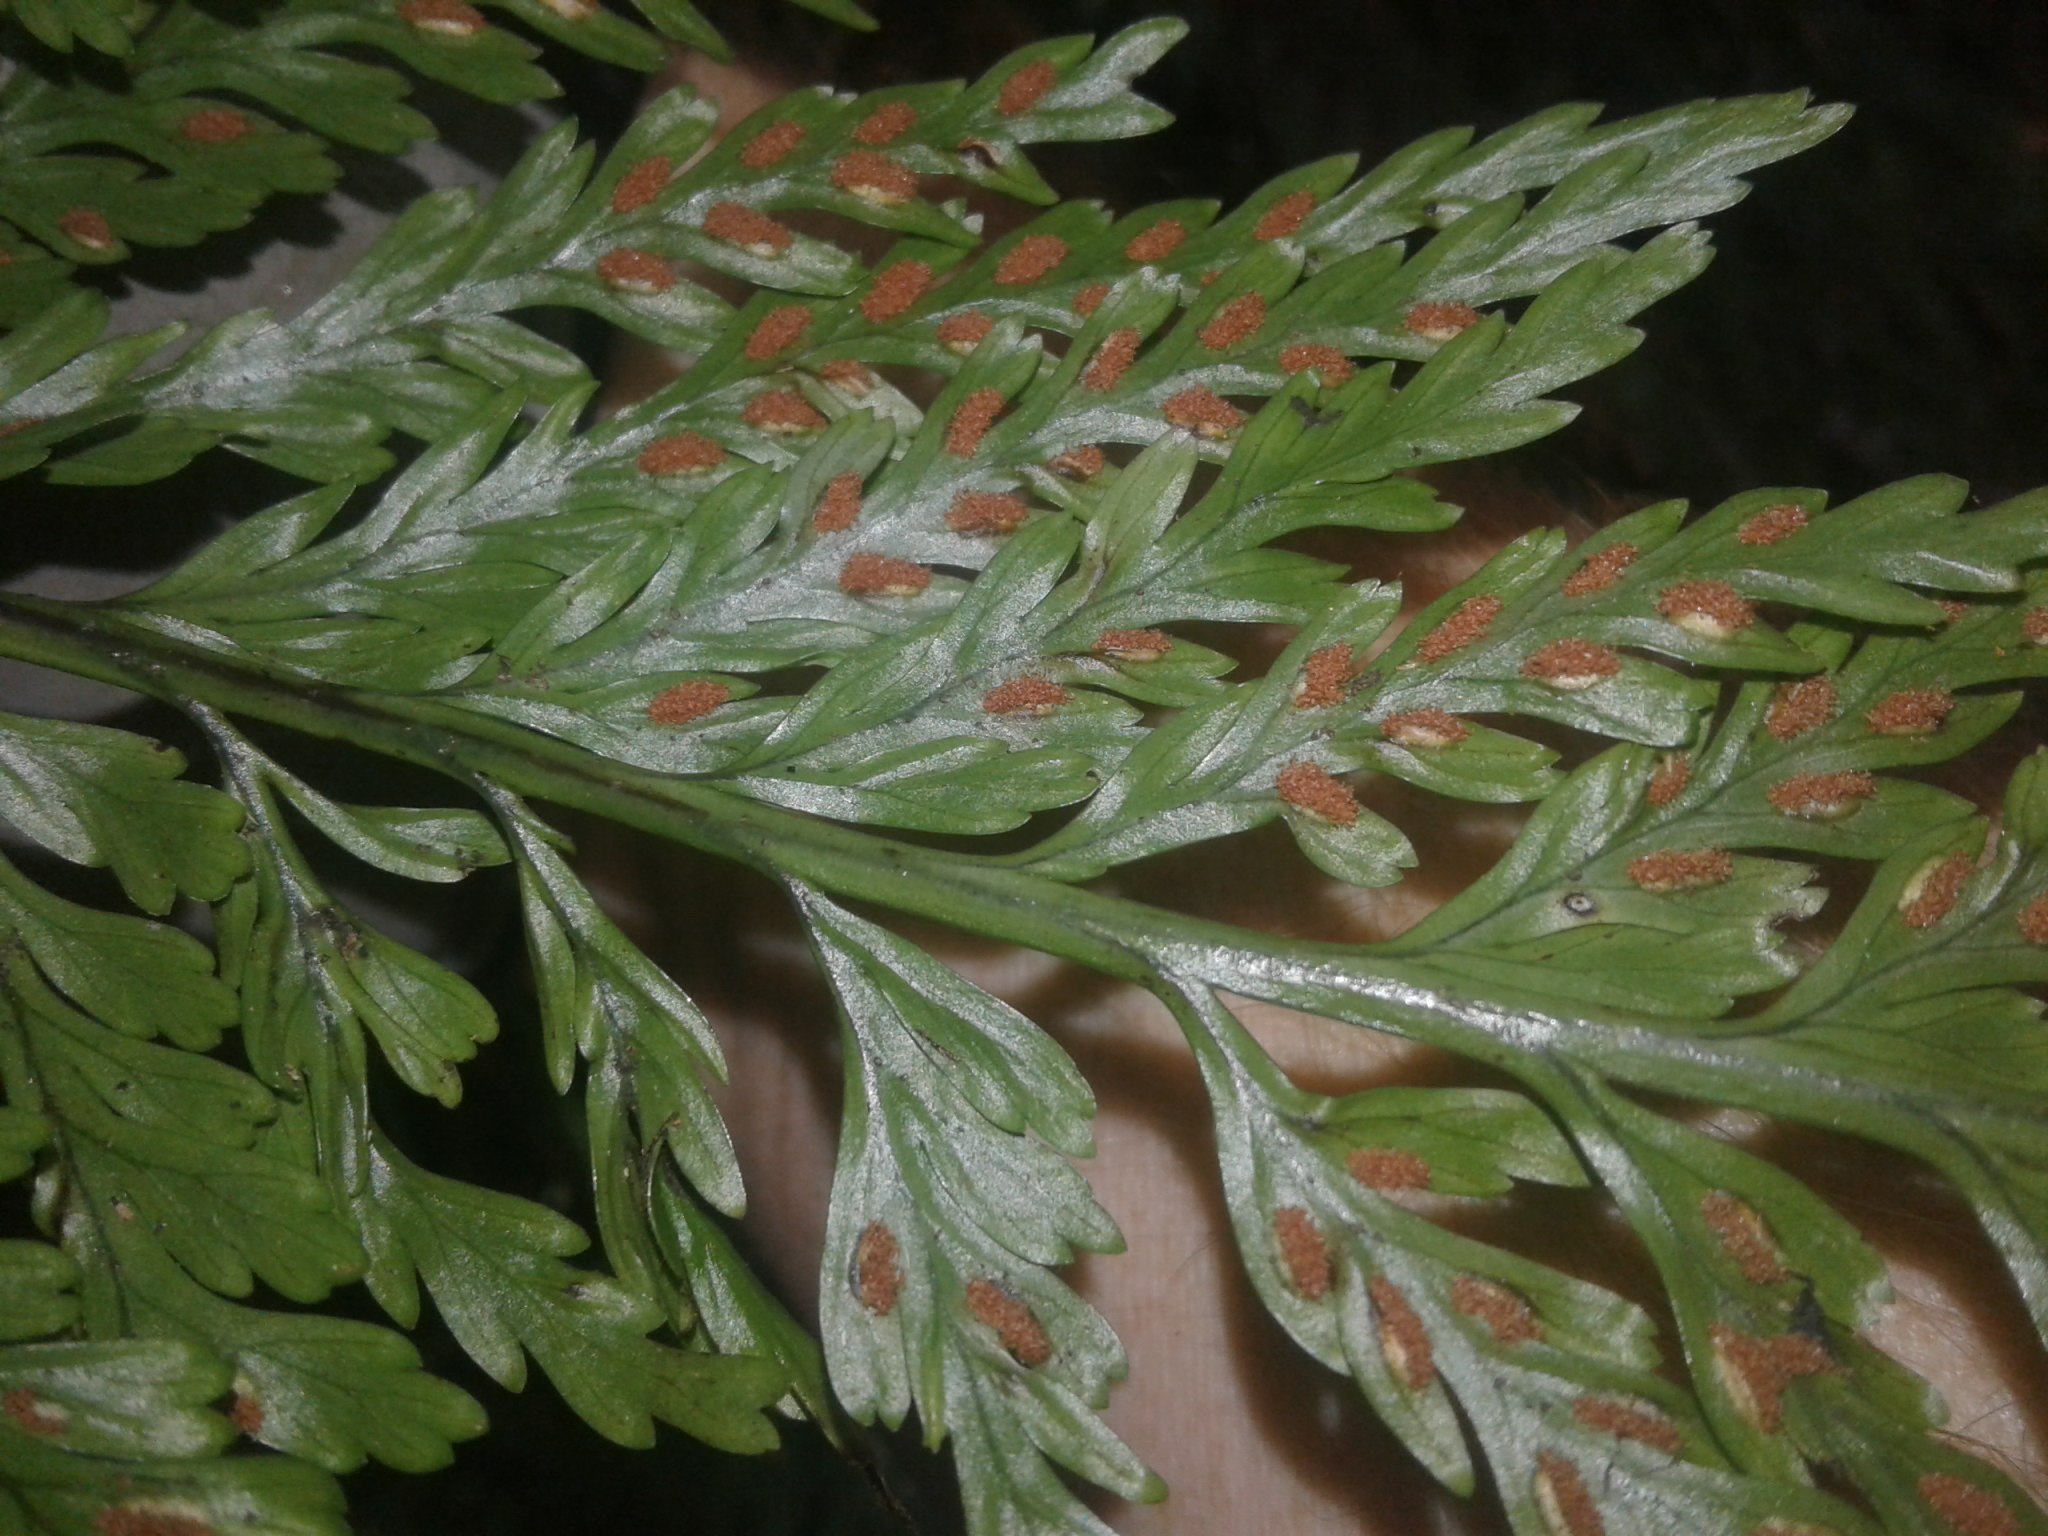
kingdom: Plantae
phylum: Tracheophyta
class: Polypodiopsida
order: Polypodiales
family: Aspleniaceae
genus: Asplenium
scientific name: Asplenium bulbiferum
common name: Mother fern
